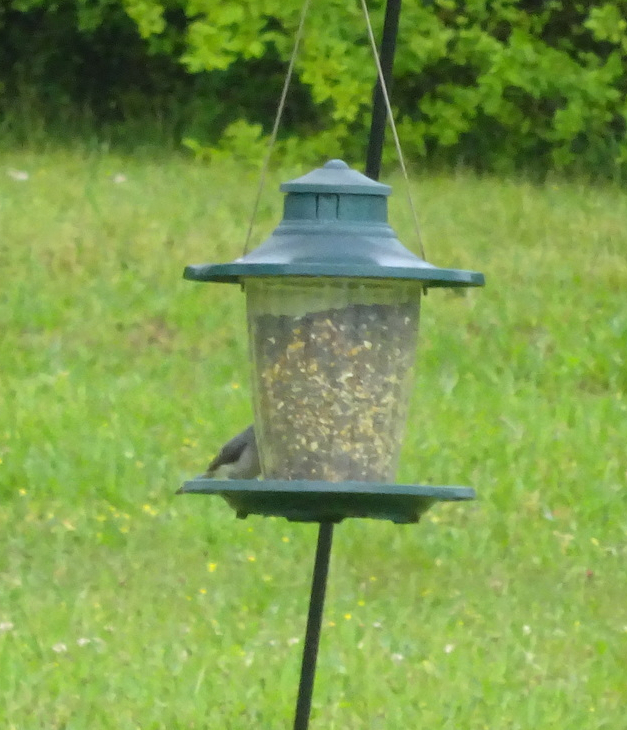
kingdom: Animalia
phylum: Chordata
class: Aves
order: Passeriformes
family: Paridae
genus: Baeolophus
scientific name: Baeolophus bicolor
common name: Tufted titmouse
